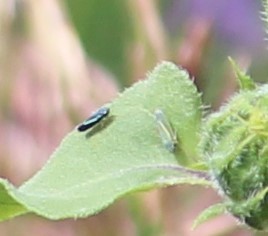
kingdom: Animalia
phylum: Arthropoda
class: Insecta
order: Hemiptera
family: Cicadellidae
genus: Graphocephala
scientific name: Graphocephala lugubris
